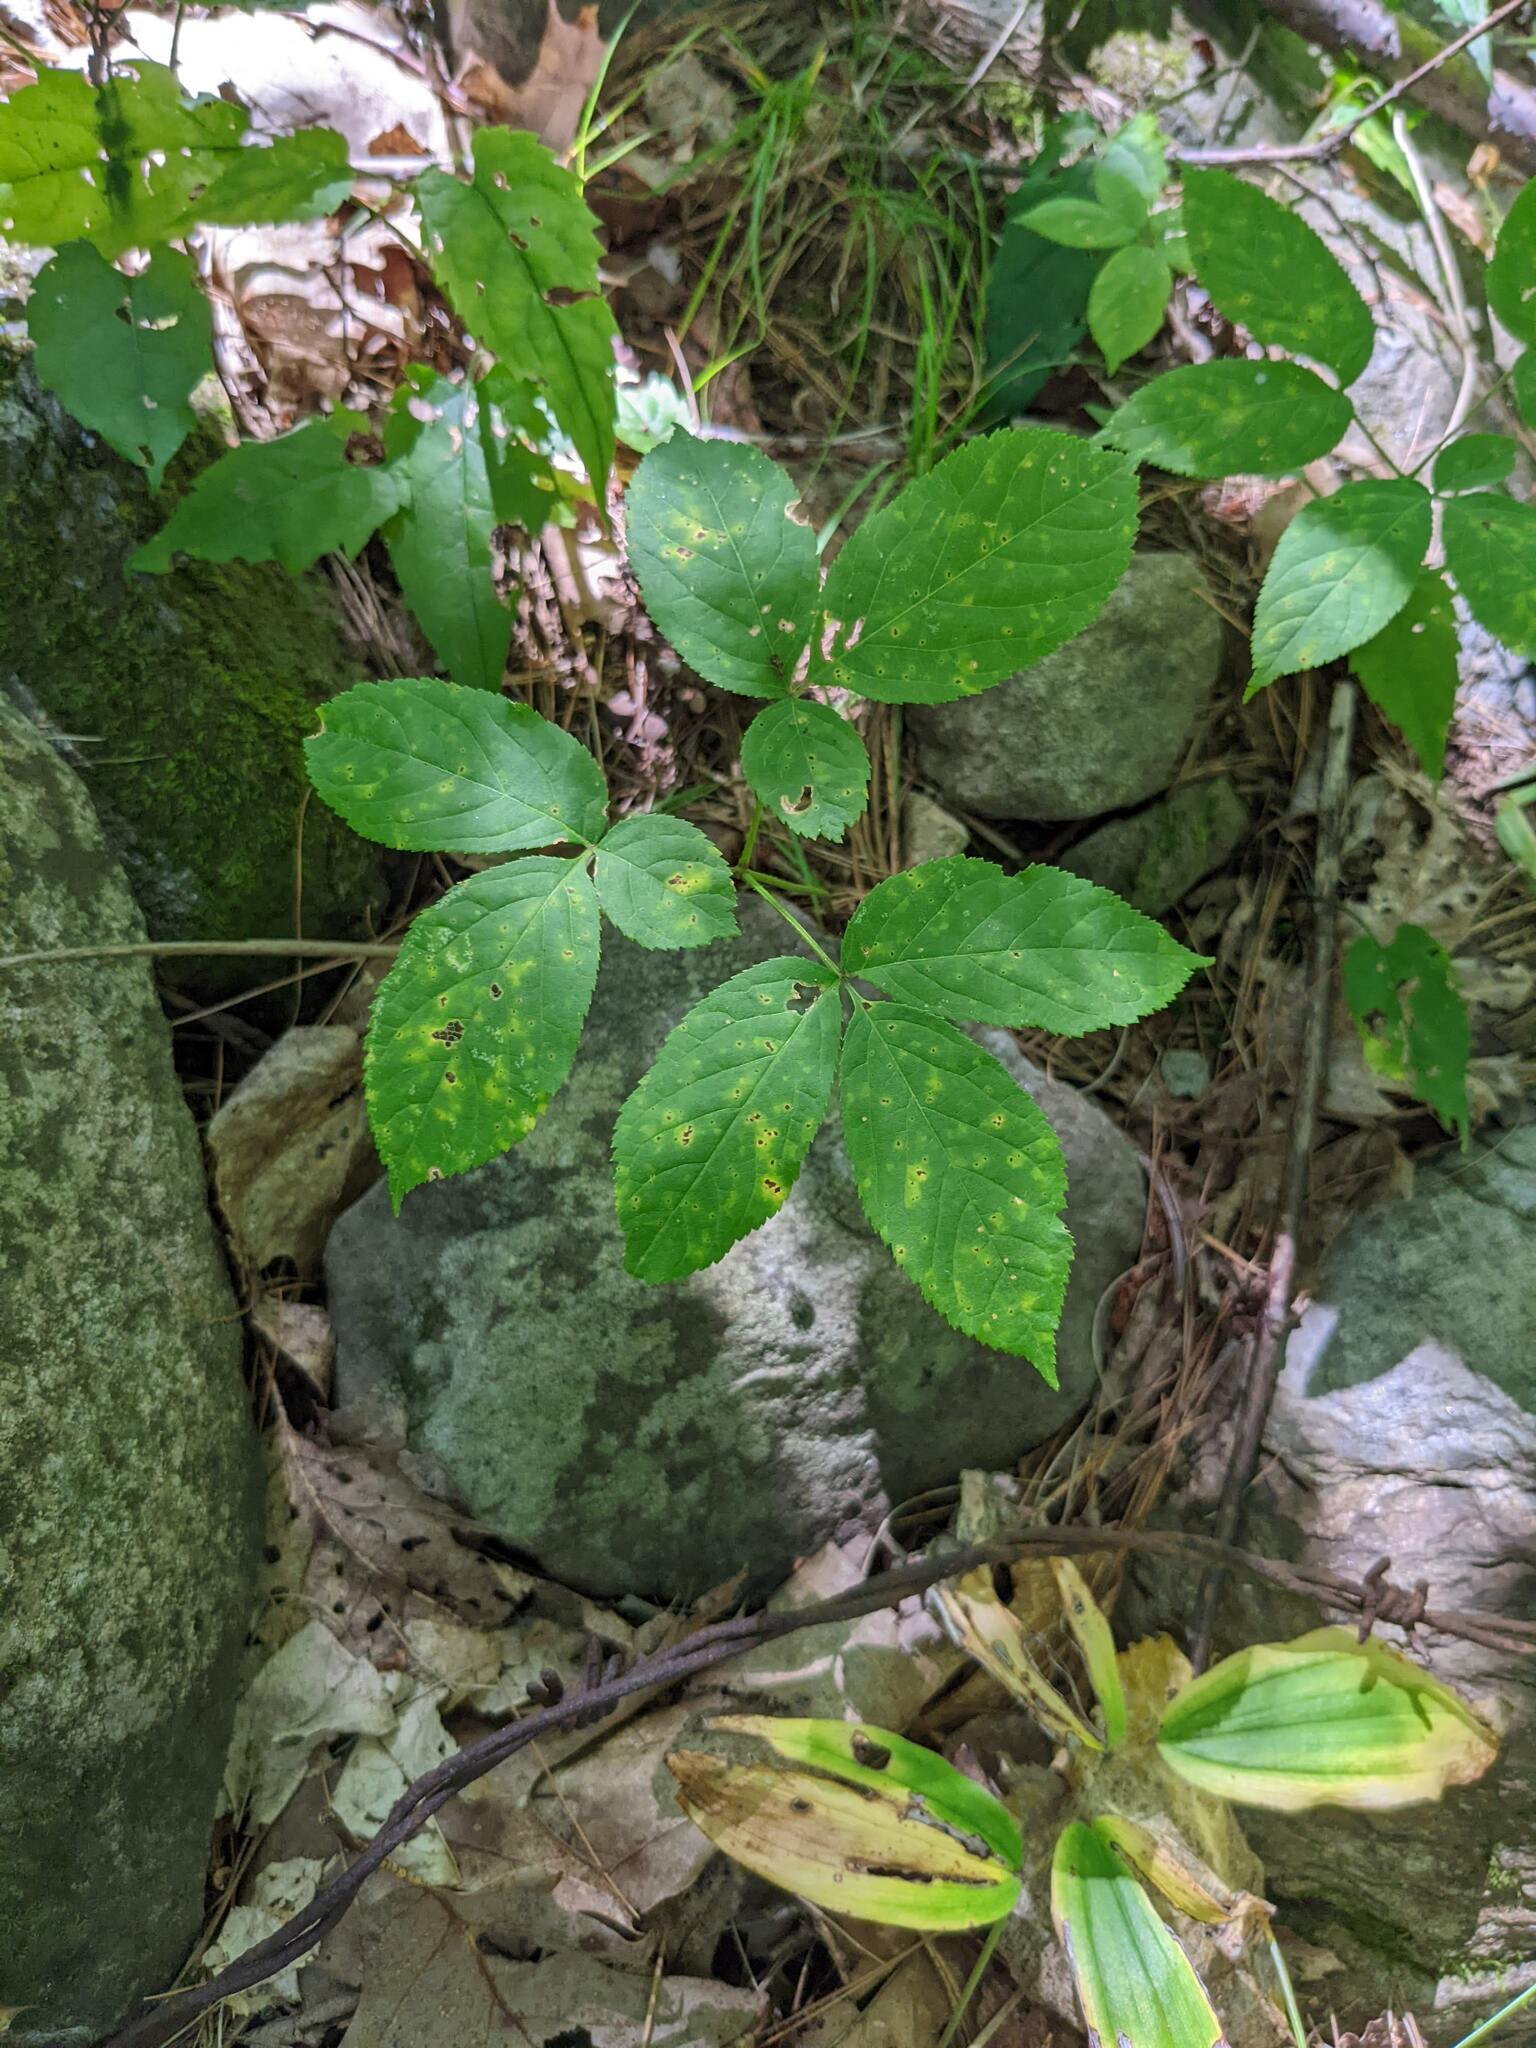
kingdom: Plantae
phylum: Tracheophyta
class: Magnoliopsida
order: Apiales
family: Araliaceae
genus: Aralia
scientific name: Aralia nudicaulis
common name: Wild sarsaparilla
